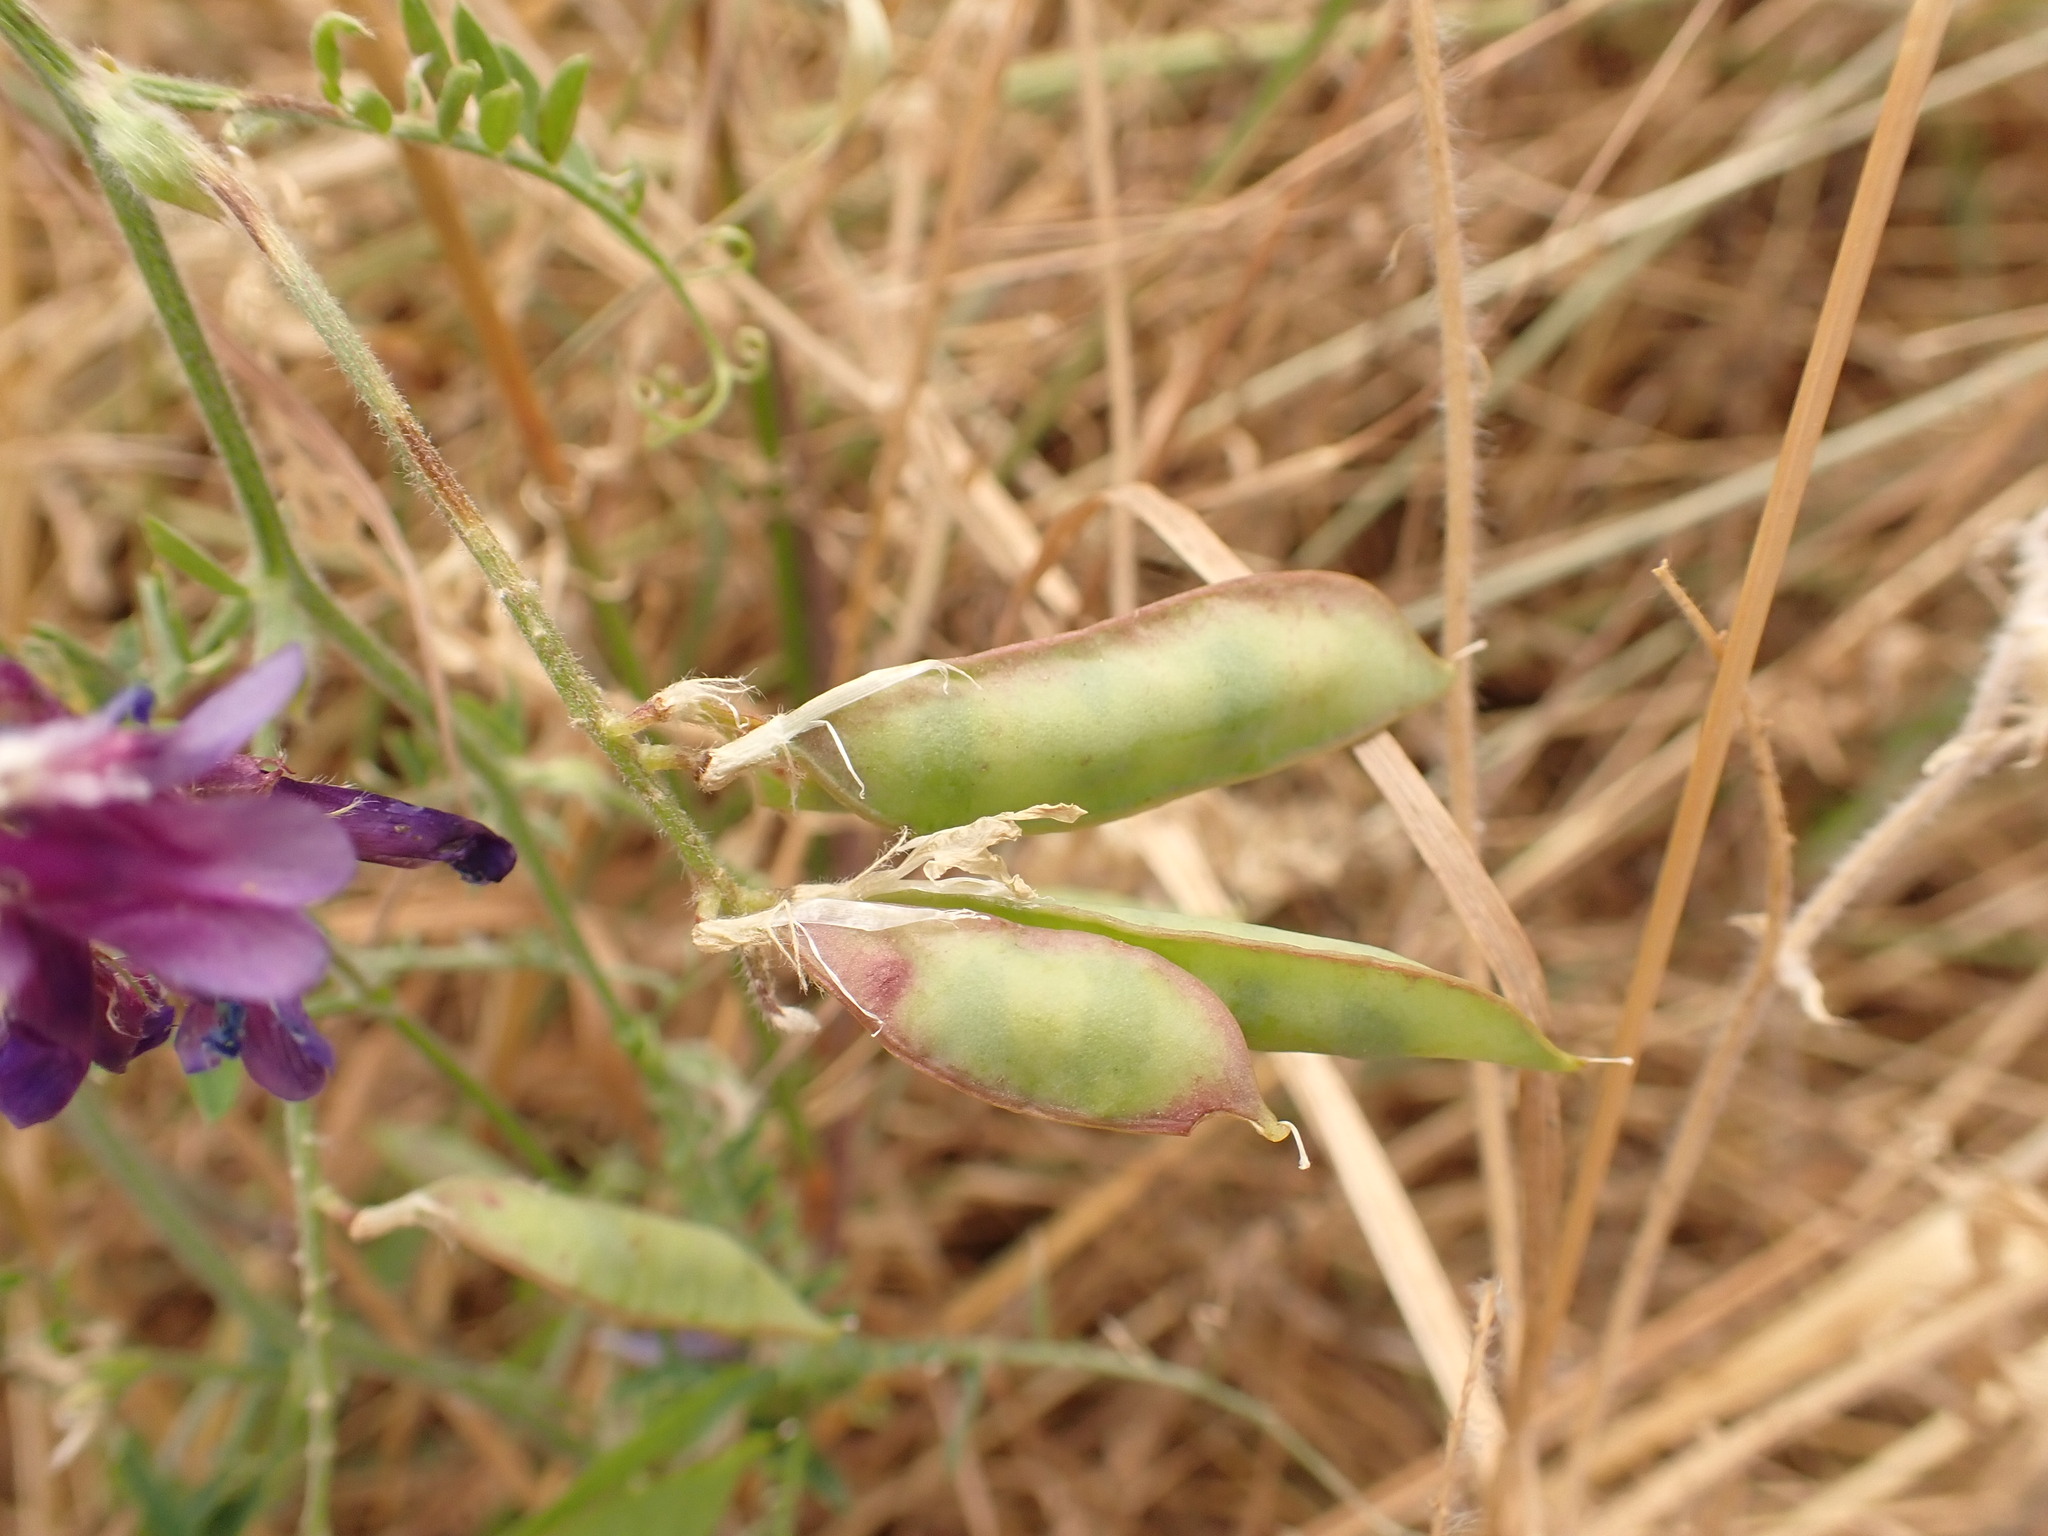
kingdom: Plantae
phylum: Tracheophyta
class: Magnoliopsida
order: Fabales
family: Fabaceae
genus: Vicia
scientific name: Vicia villosa
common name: Fodder vetch
